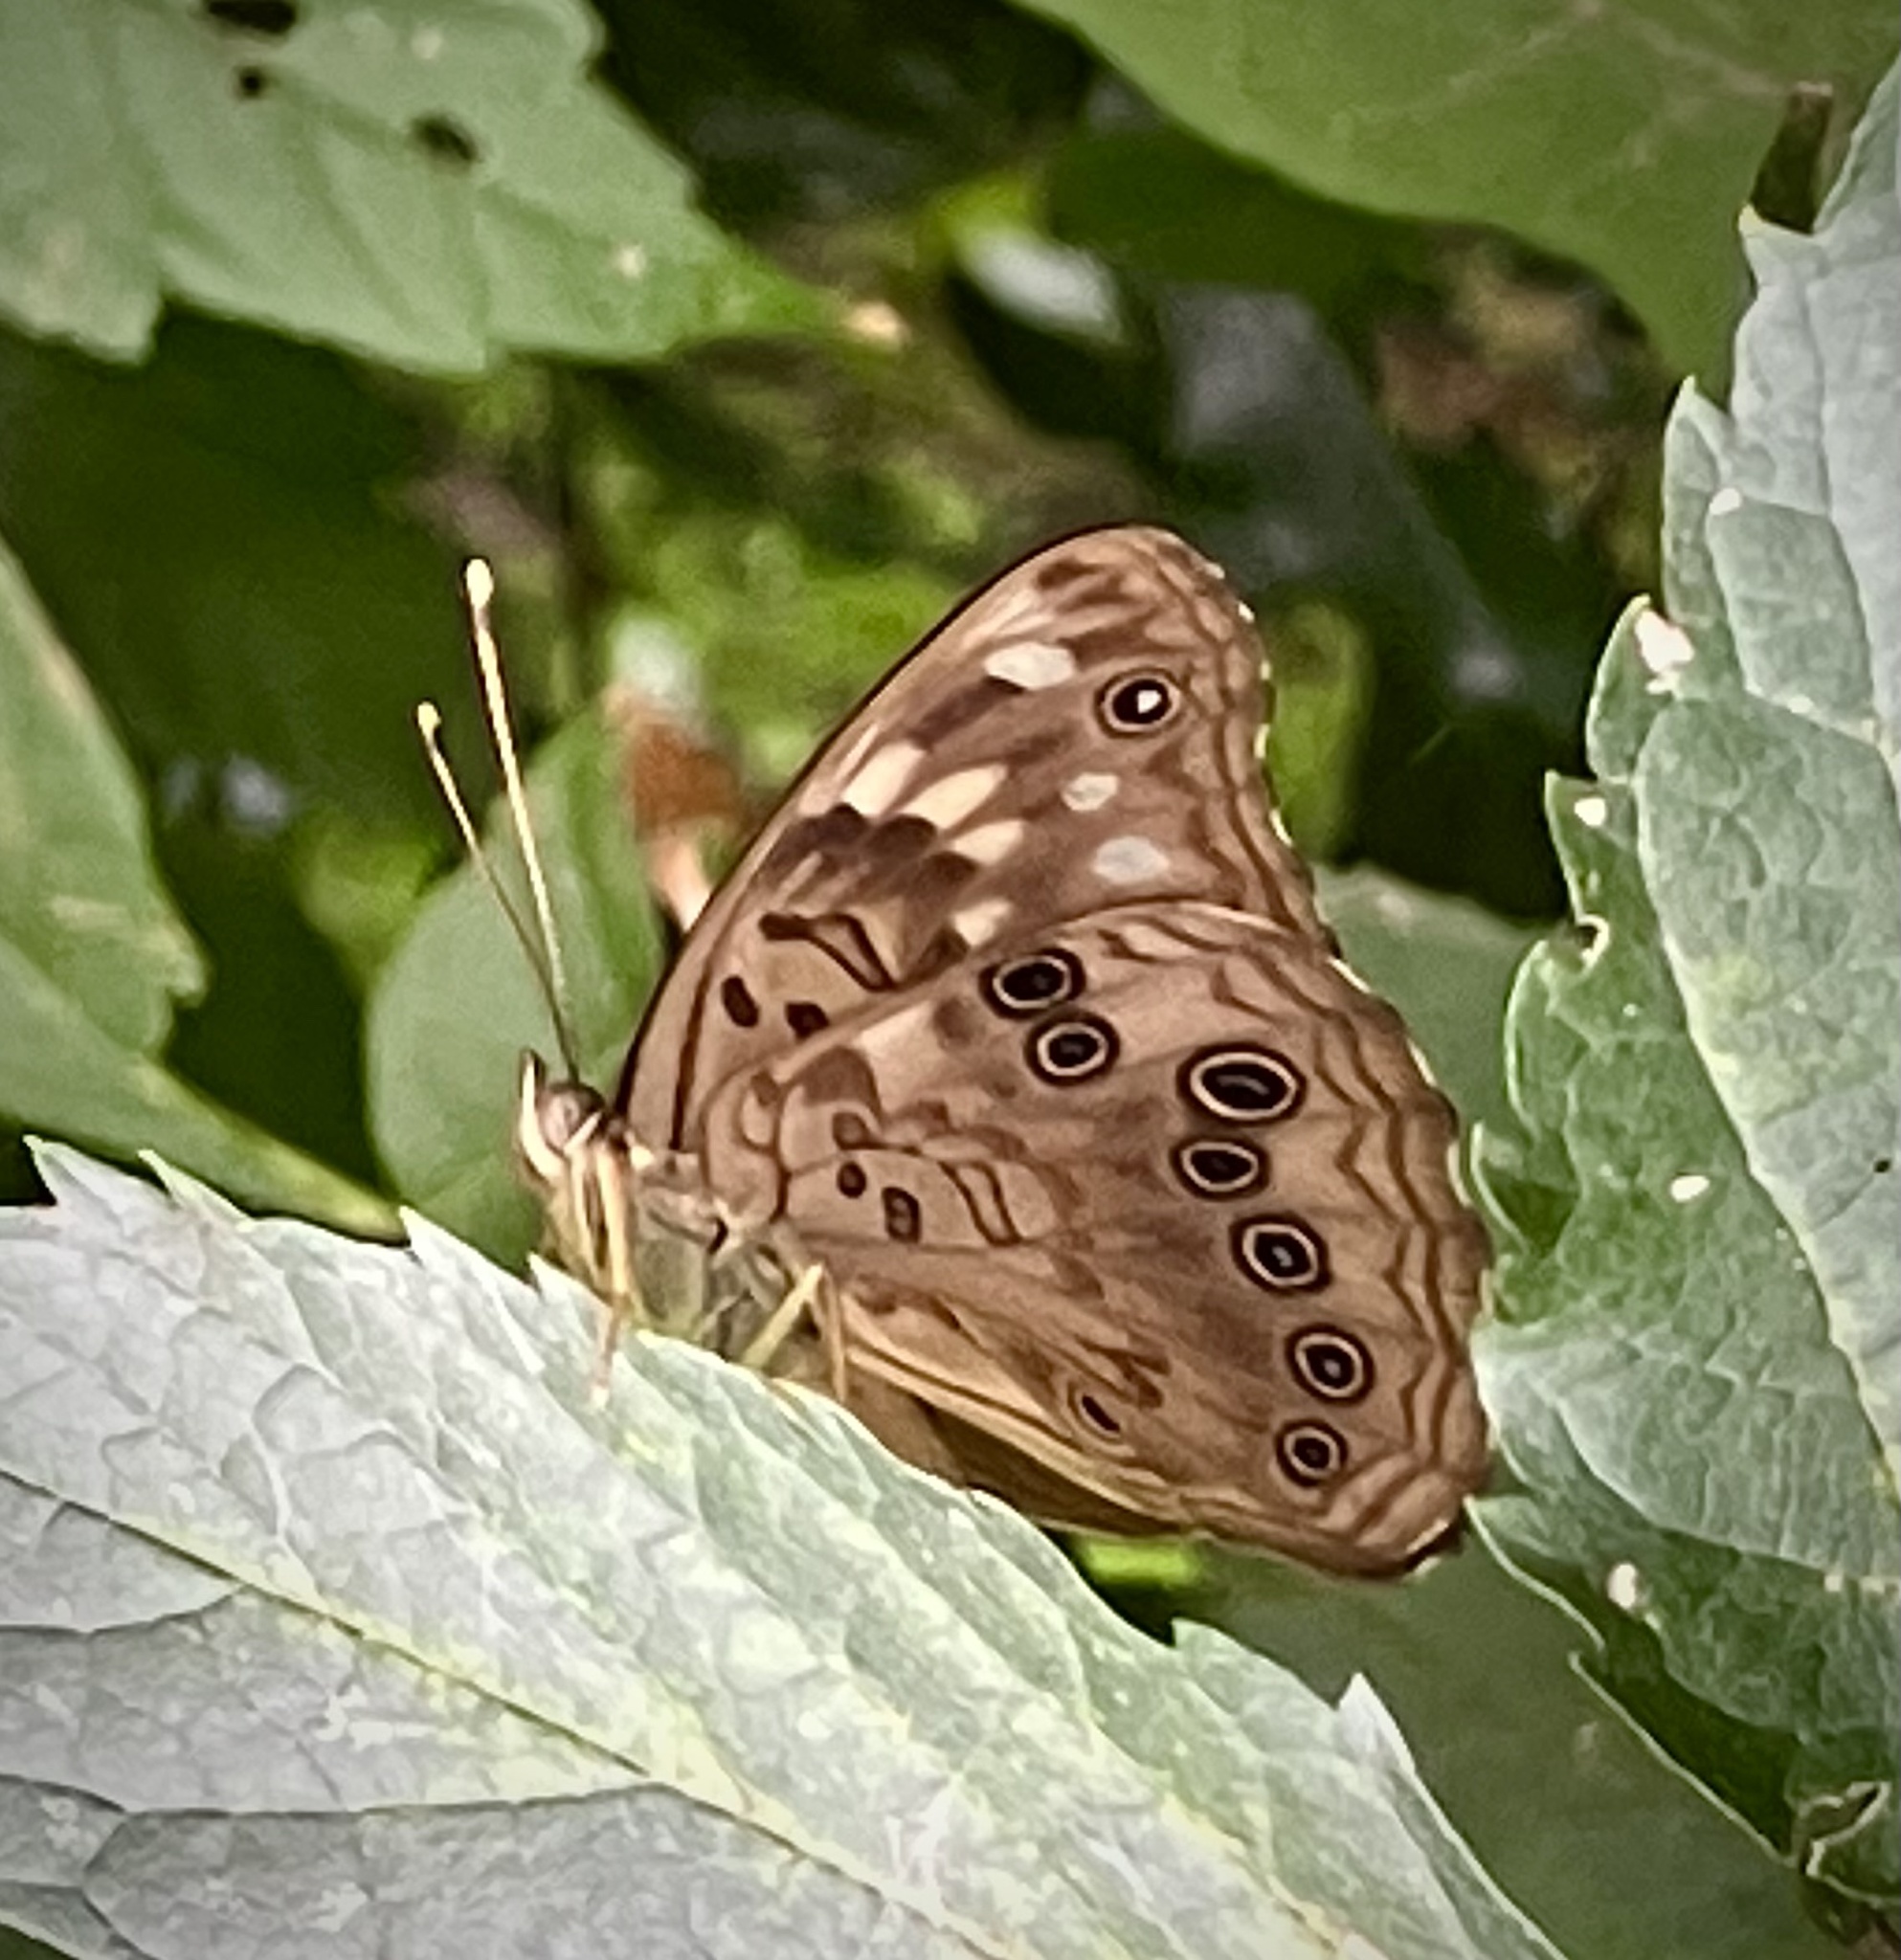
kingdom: Animalia
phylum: Arthropoda
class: Insecta
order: Lepidoptera
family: Nymphalidae
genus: Asterocampa
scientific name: Asterocampa celtis
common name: Hackberry emperor
